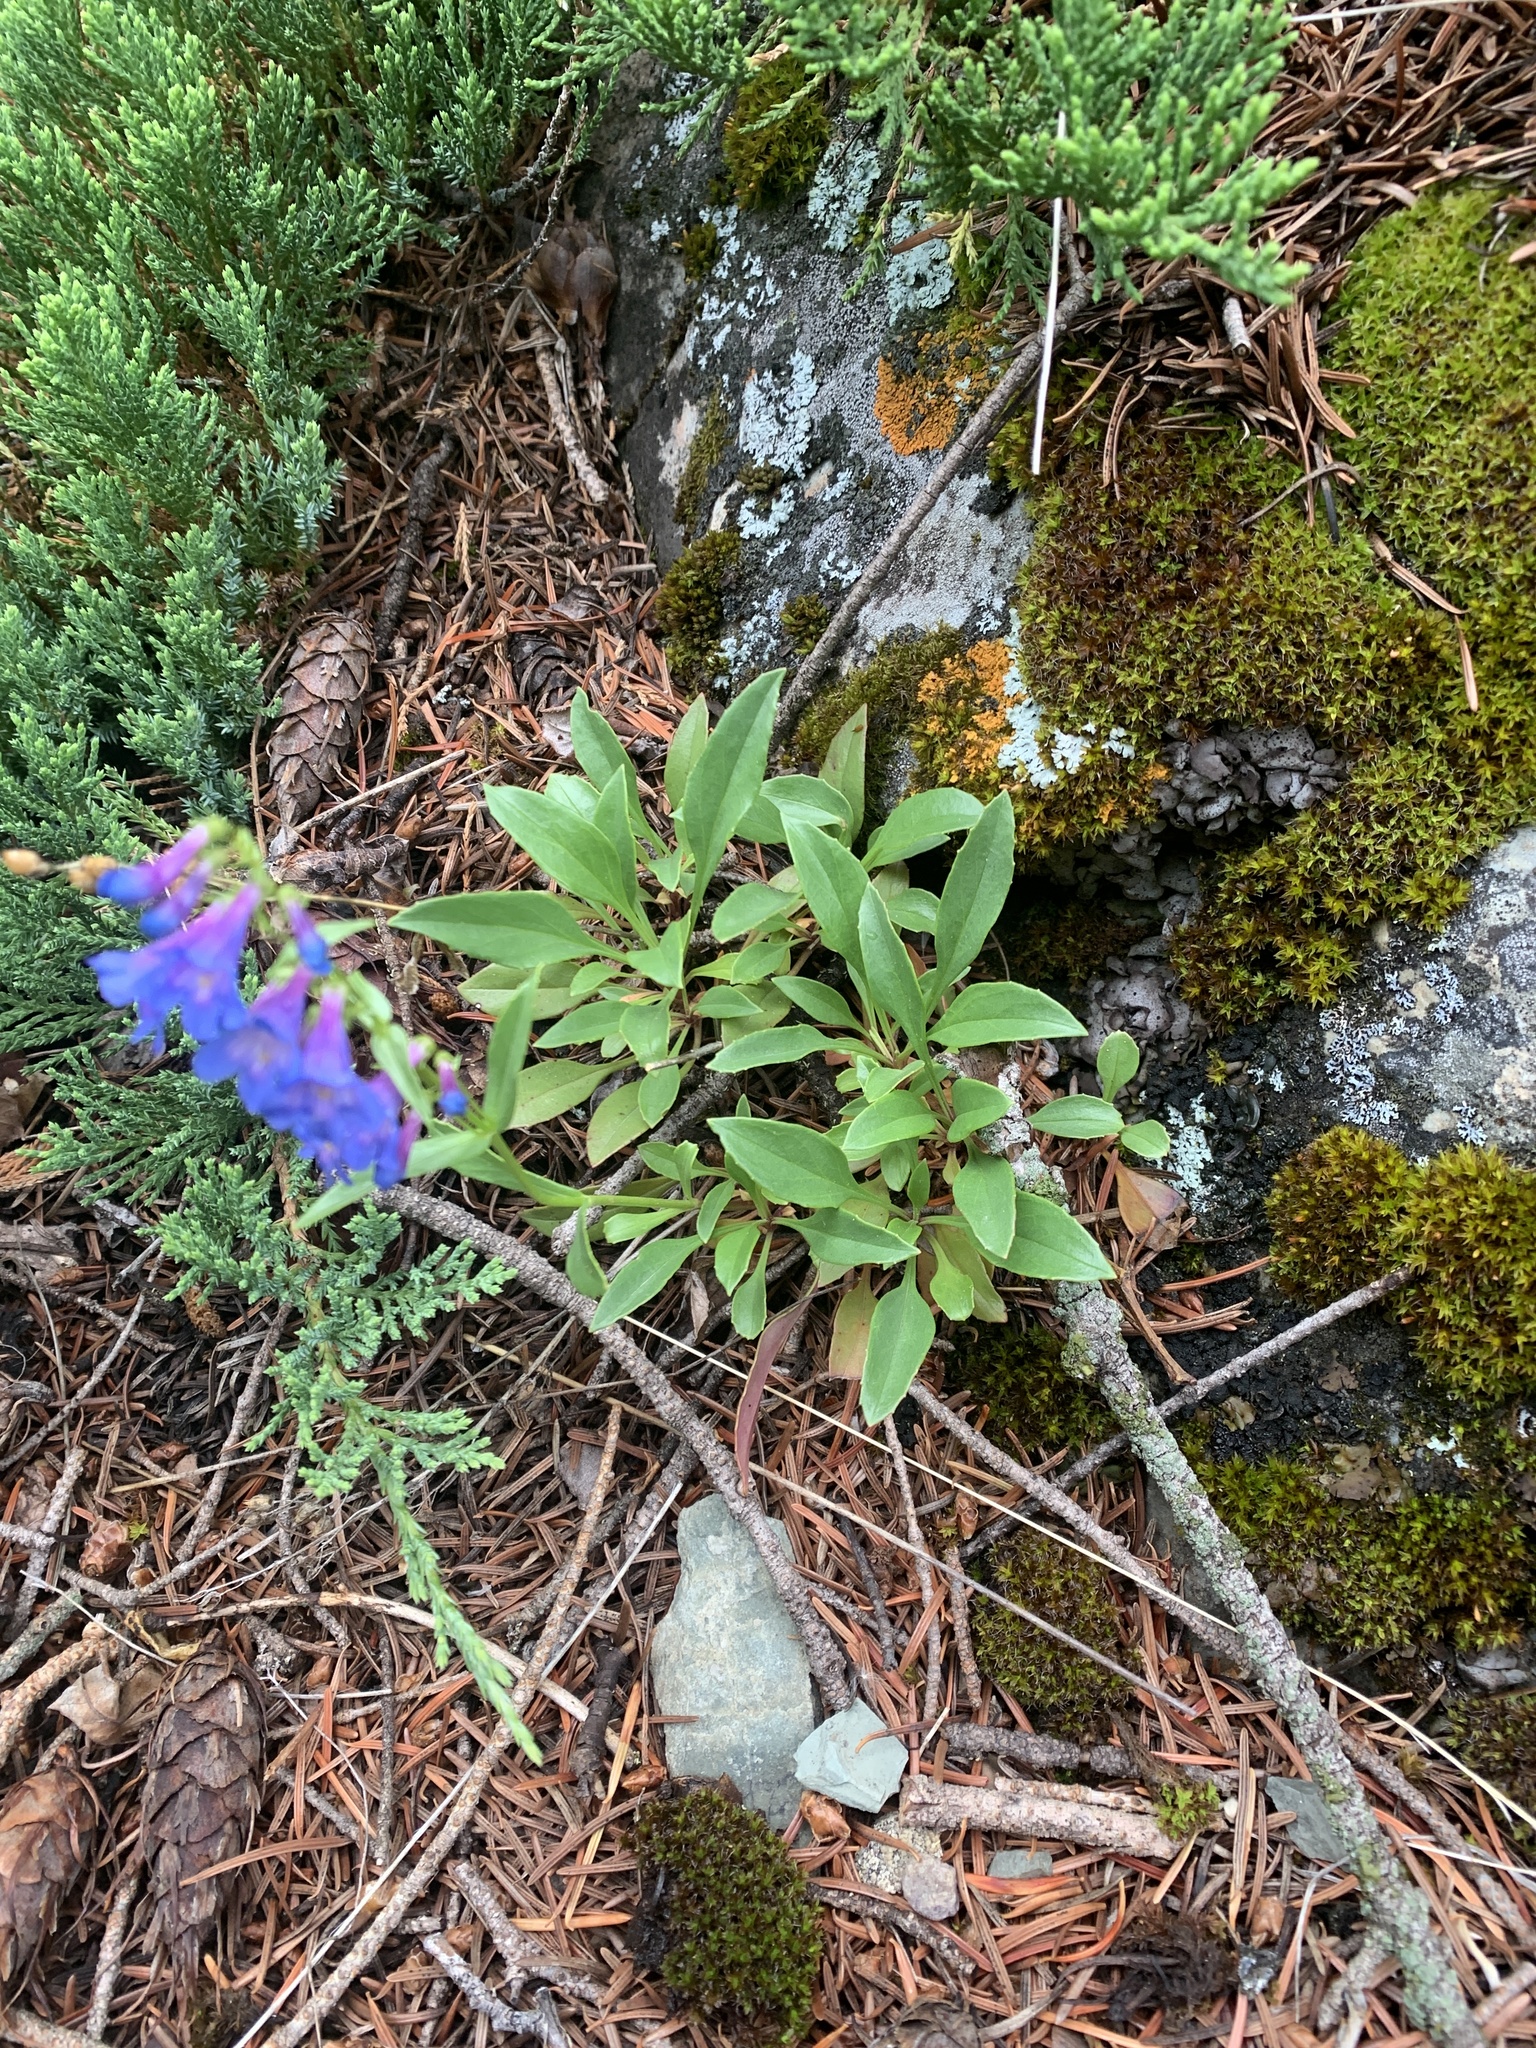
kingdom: Plantae
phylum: Tracheophyta
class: Magnoliopsida
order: Lamiales
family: Plantaginaceae
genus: Penstemon
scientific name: Penstemon albertinus
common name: Alberta beardtongue
